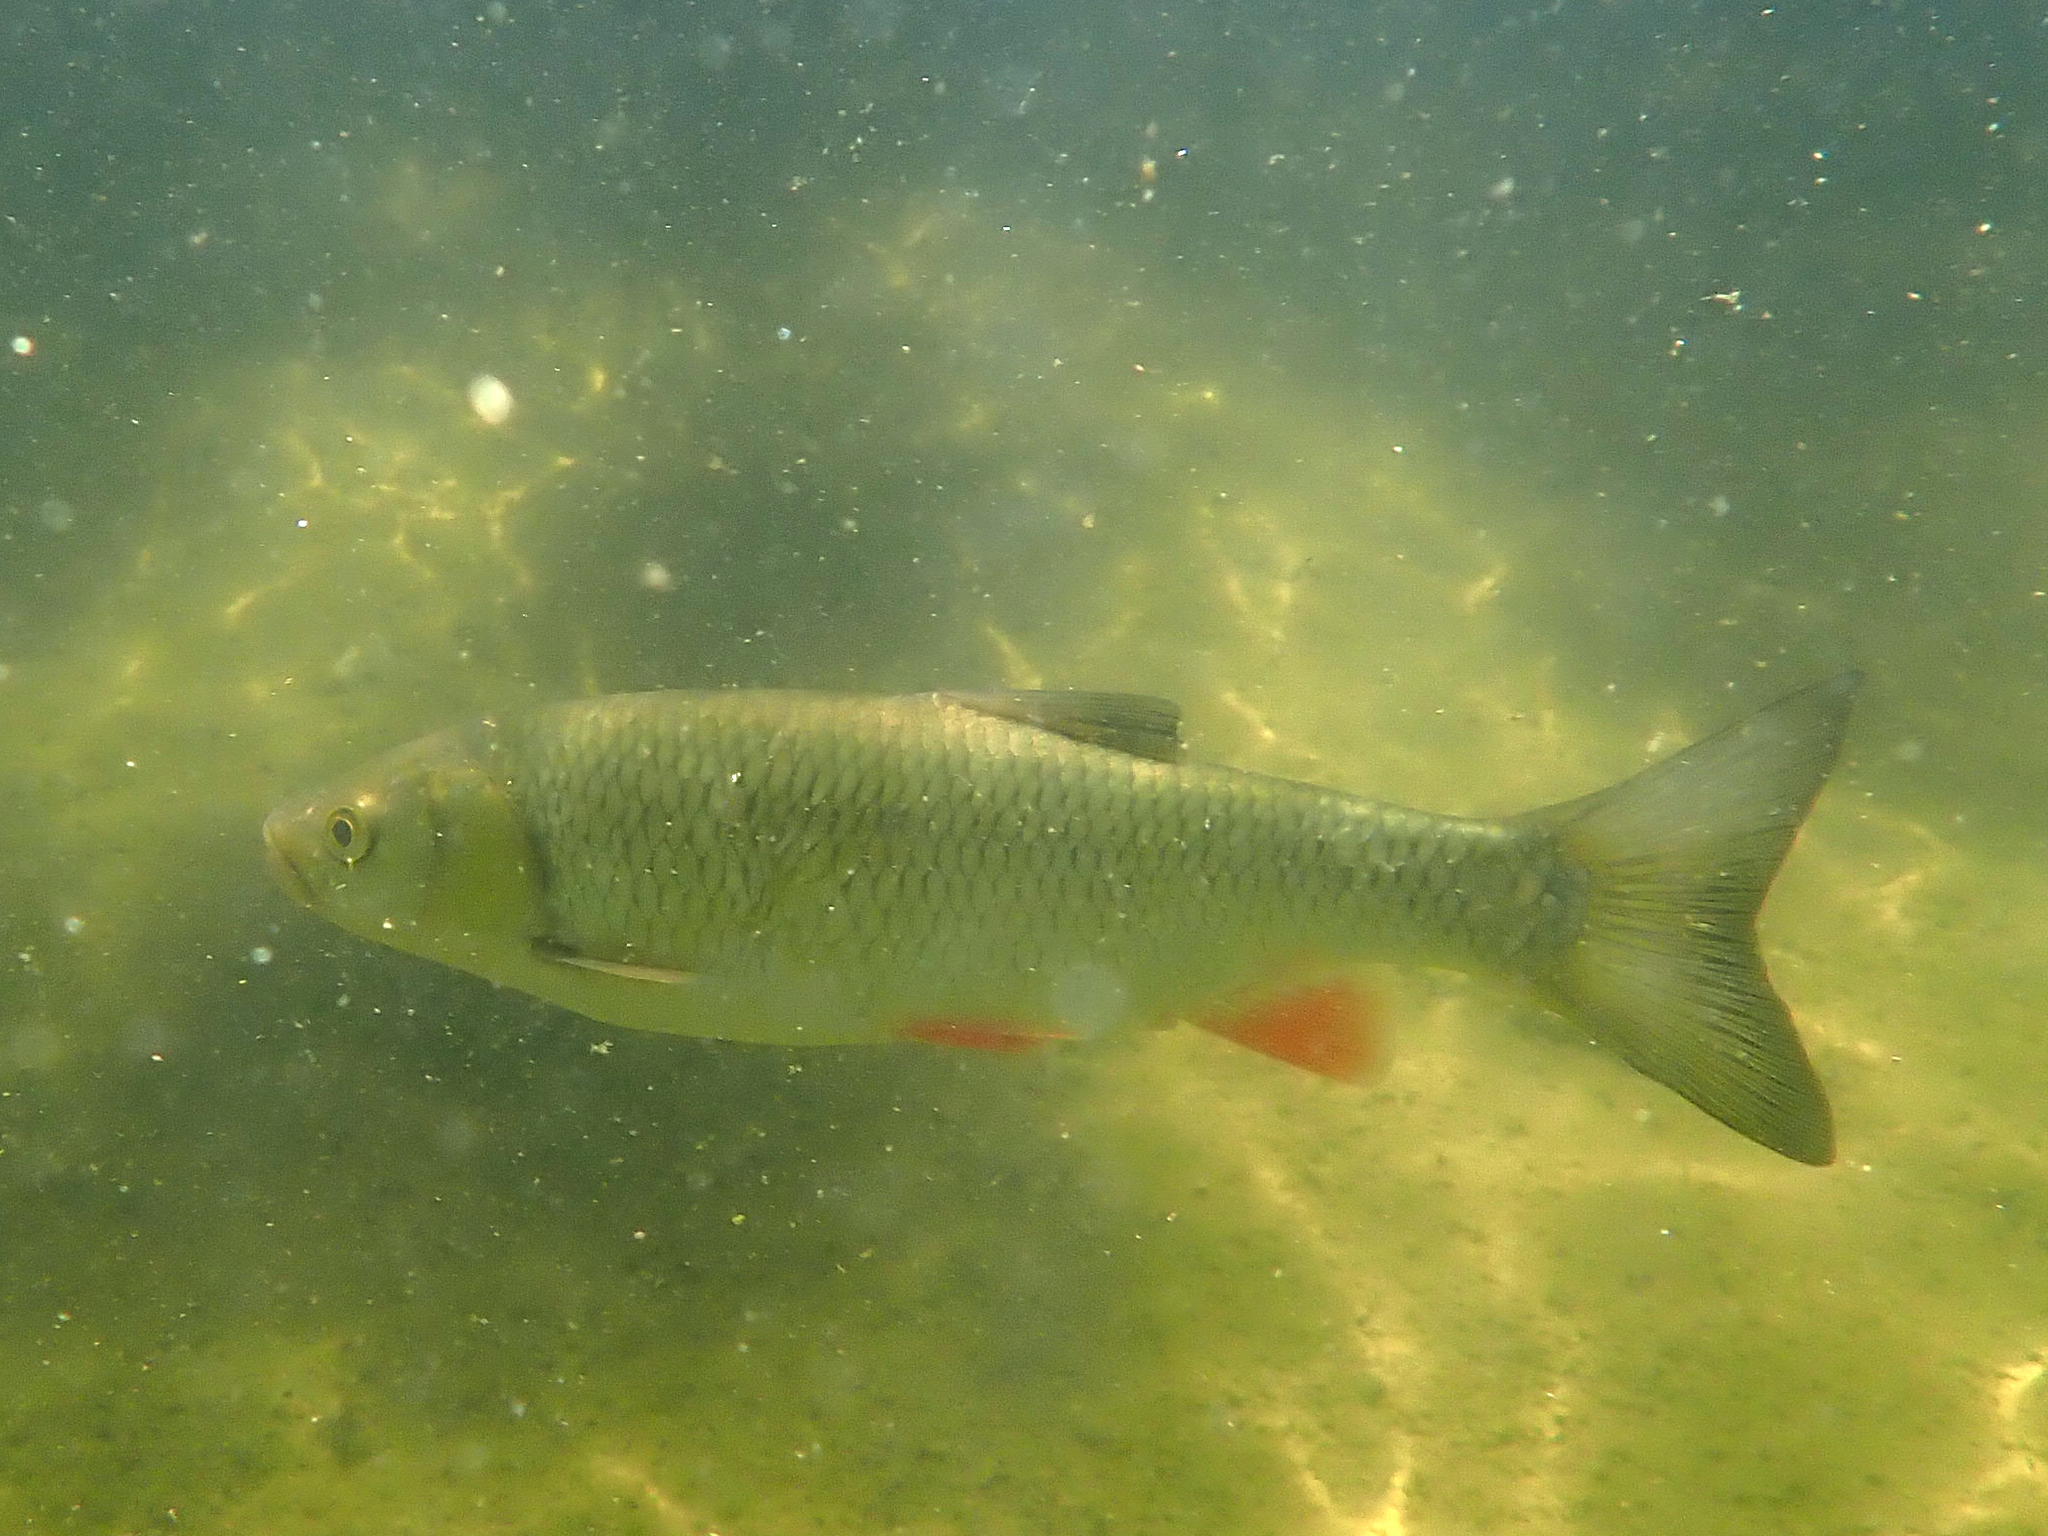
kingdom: Animalia
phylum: Chordata
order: Cypriniformes
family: Cyprinidae
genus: Squalius
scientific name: Squalius cephalus
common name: Chub
